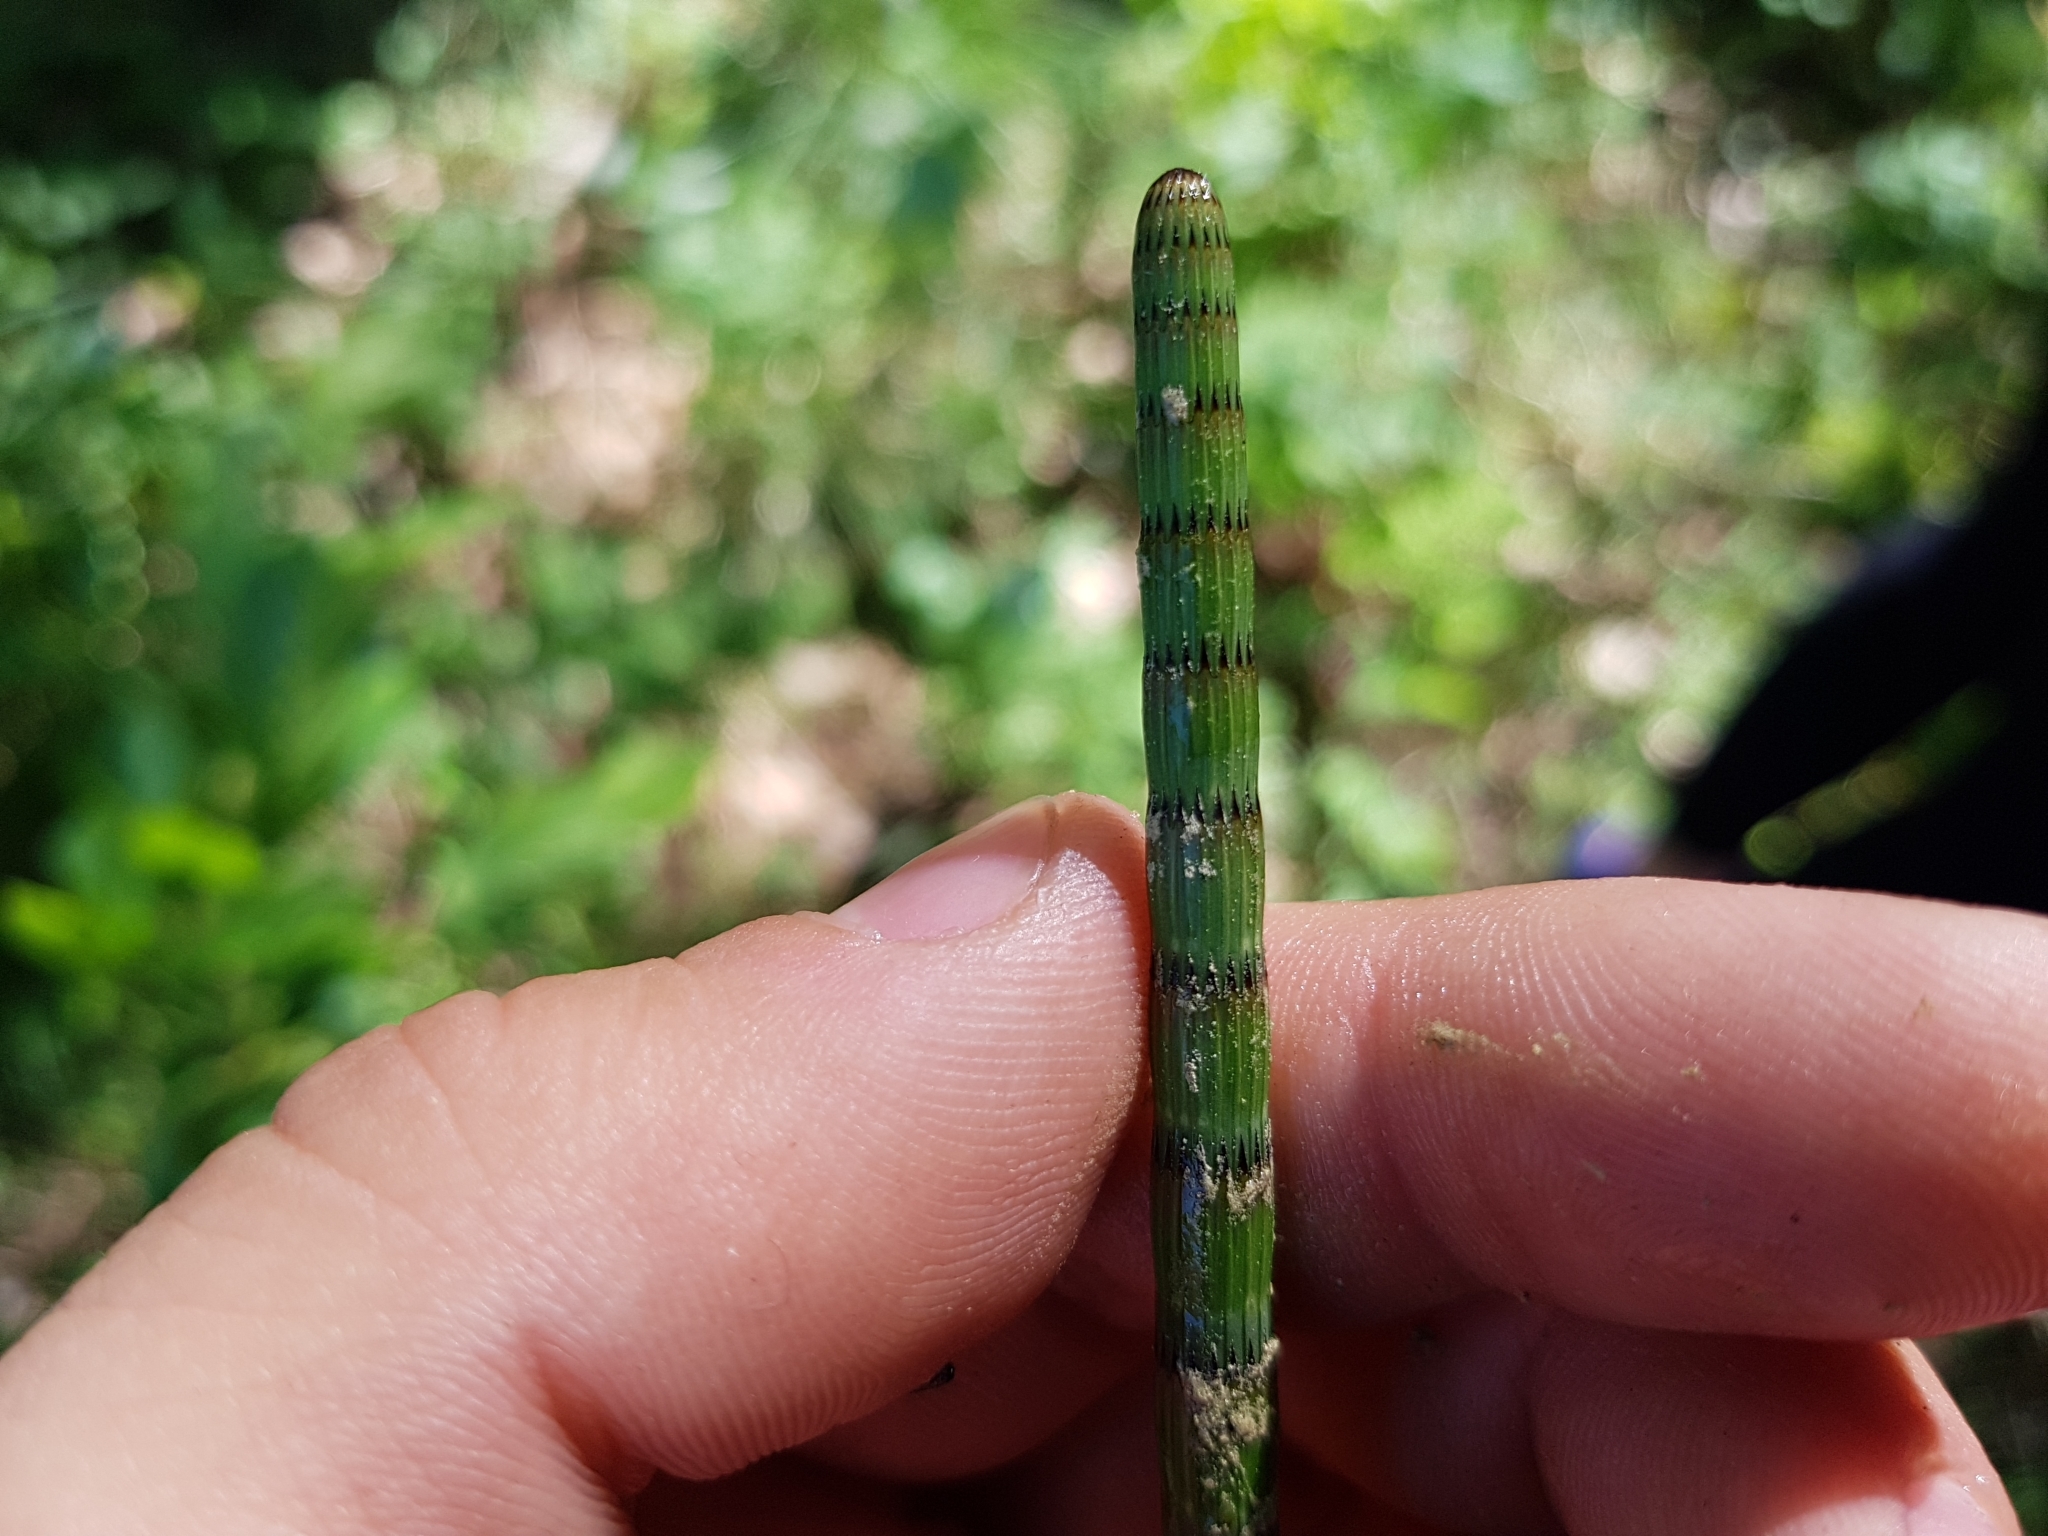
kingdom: Plantae
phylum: Tracheophyta
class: Polypodiopsida
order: Equisetales
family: Equisetaceae
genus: Equisetum
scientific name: Equisetum fluviatile
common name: Water horsetail
